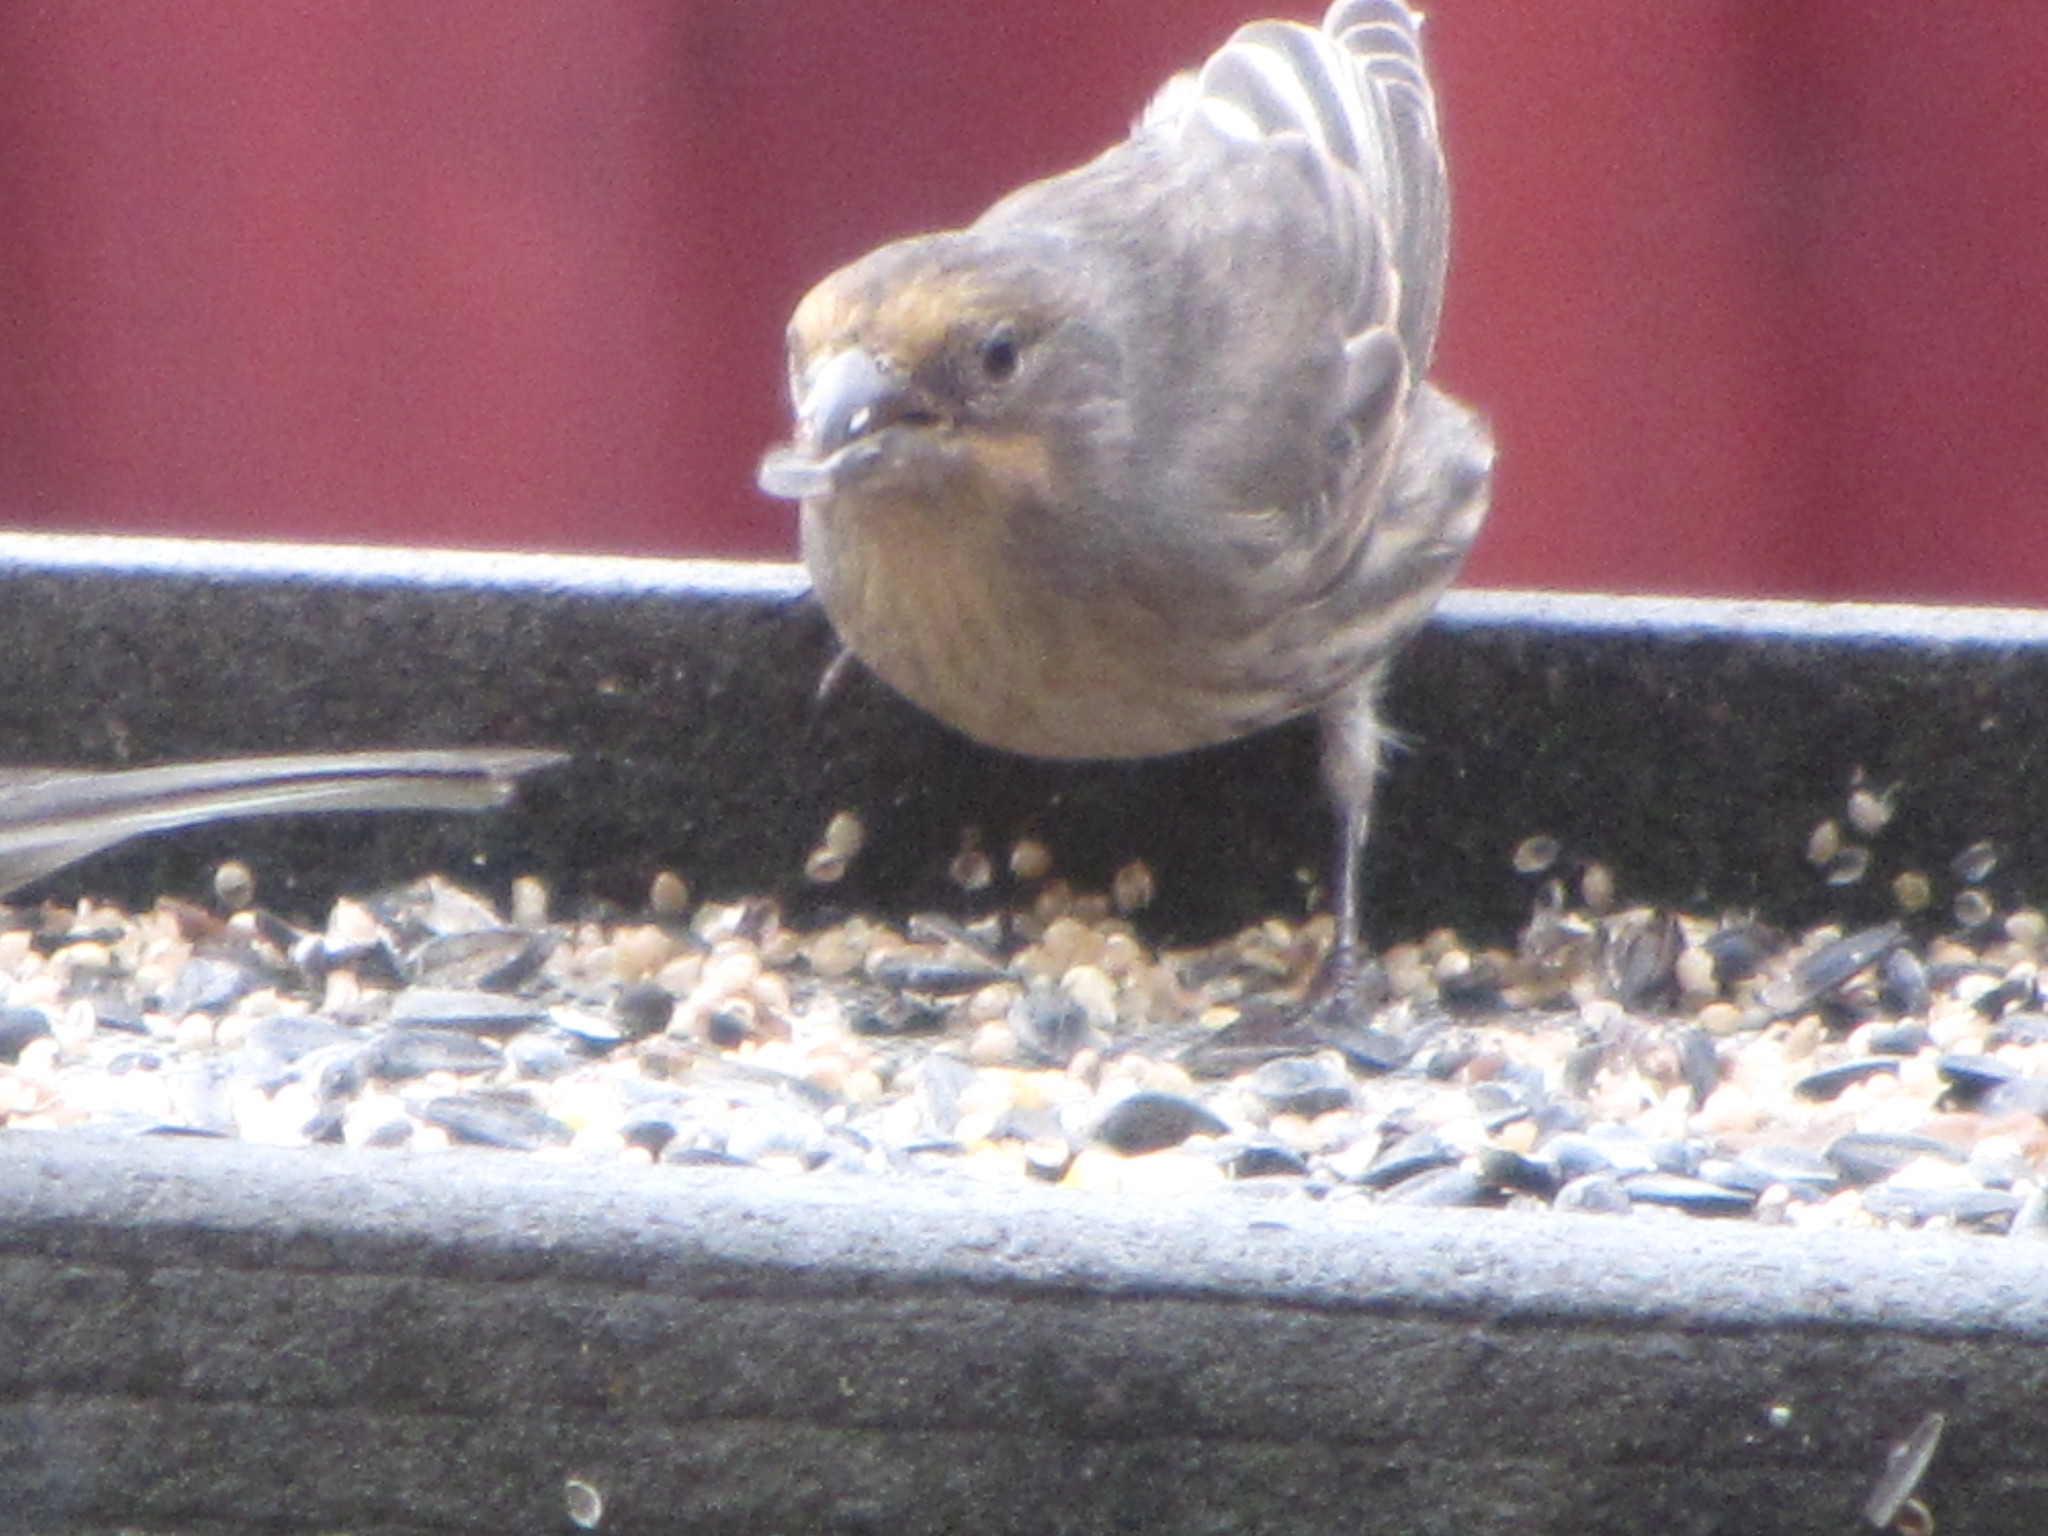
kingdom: Animalia
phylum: Chordata
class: Aves
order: Passeriformes
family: Fringillidae
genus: Haemorhous
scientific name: Haemorhous mexicanus
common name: House finch
